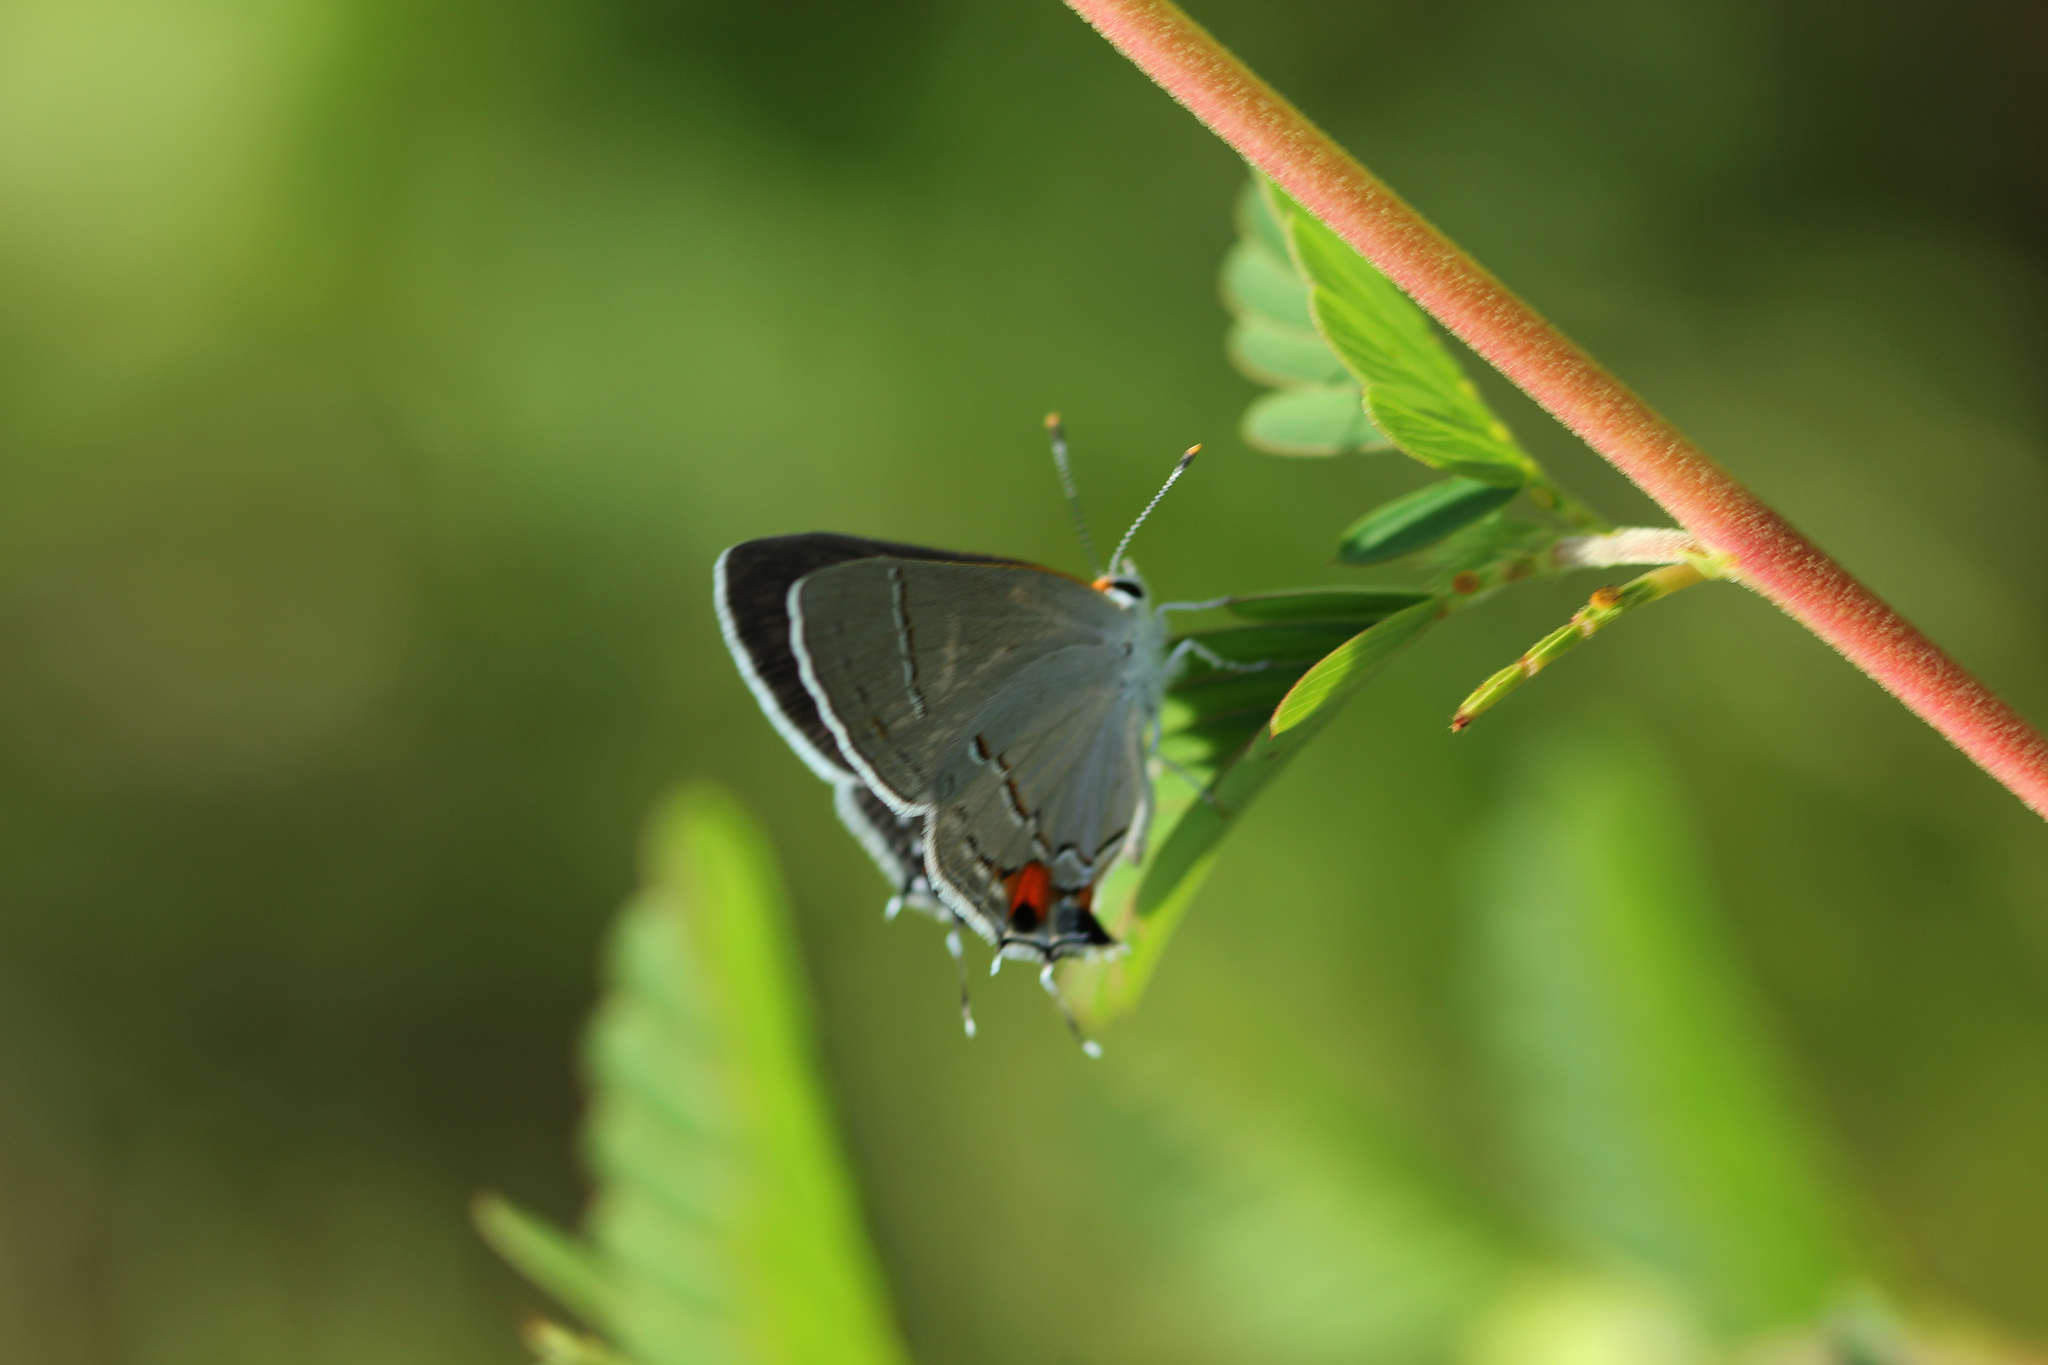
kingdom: Animalia
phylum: Arthropoda
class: Insecta
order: Lepidoptera
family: Lycaenidae
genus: Strymon
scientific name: Strymon melinus
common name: Gray hairstreak
